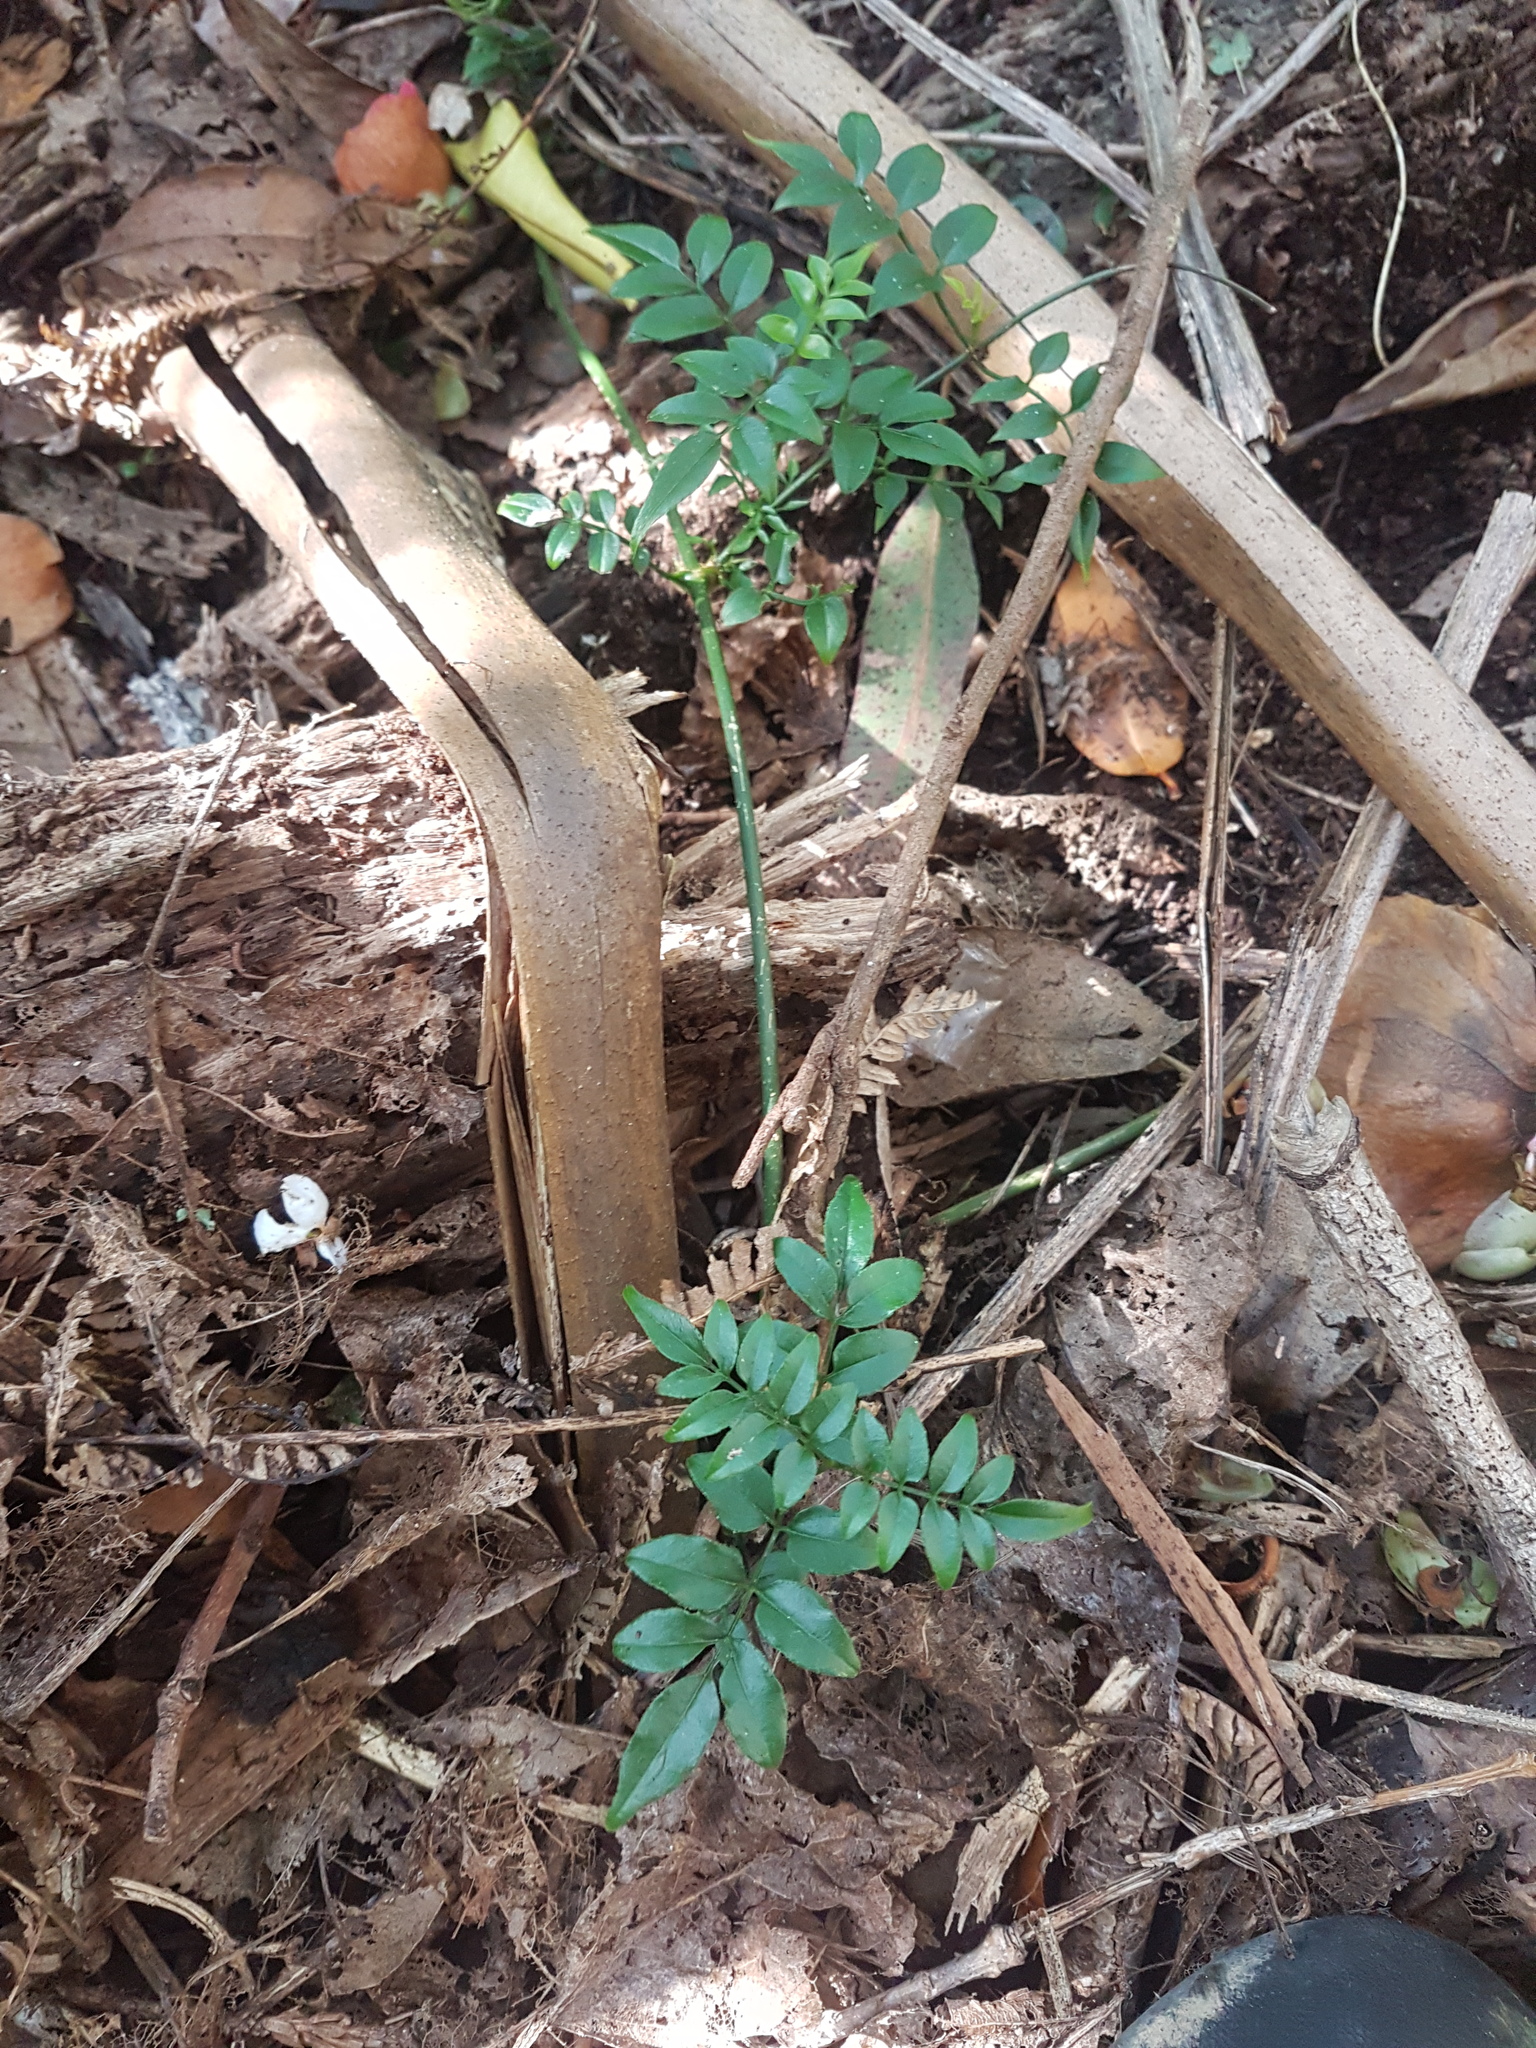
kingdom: Plantae
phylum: Tracheophyta
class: Magnoliopsida
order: Lamiales
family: Oleaceae
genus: Jasminum
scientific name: Jasminum polyanthum
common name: Pink jasmine
